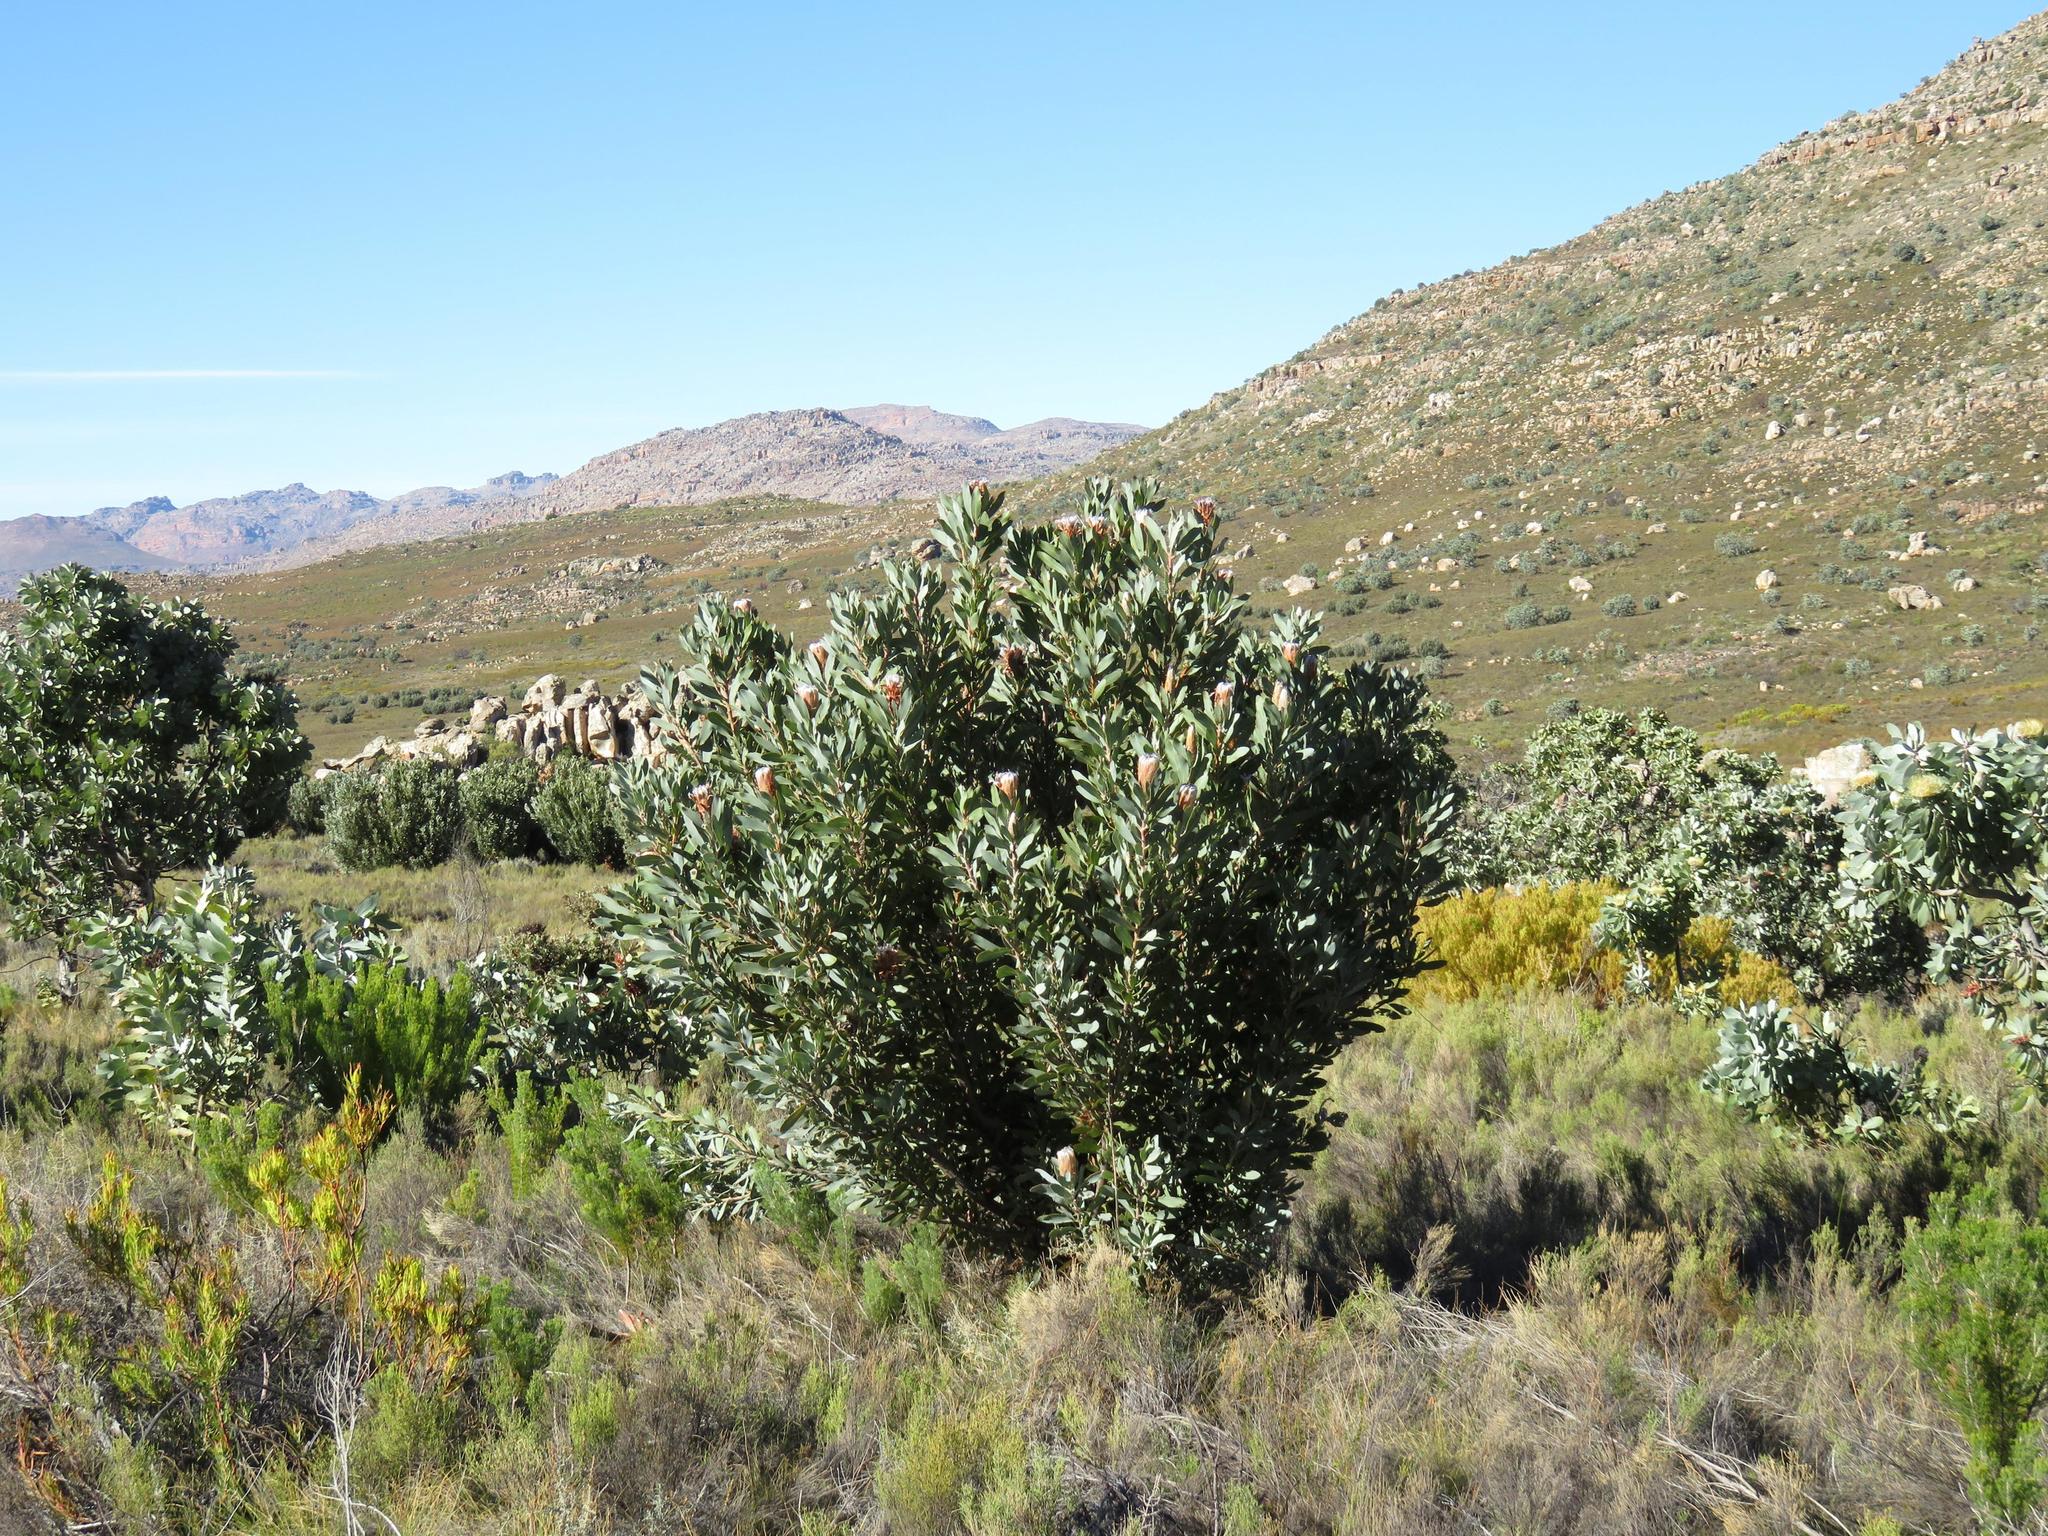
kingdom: Plantae
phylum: Tracheophyta
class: Magnoliopsida
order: Proteales
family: Proteaceae
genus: Protea
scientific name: Protea laurifolia
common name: Grey-leaf sugarbsh
